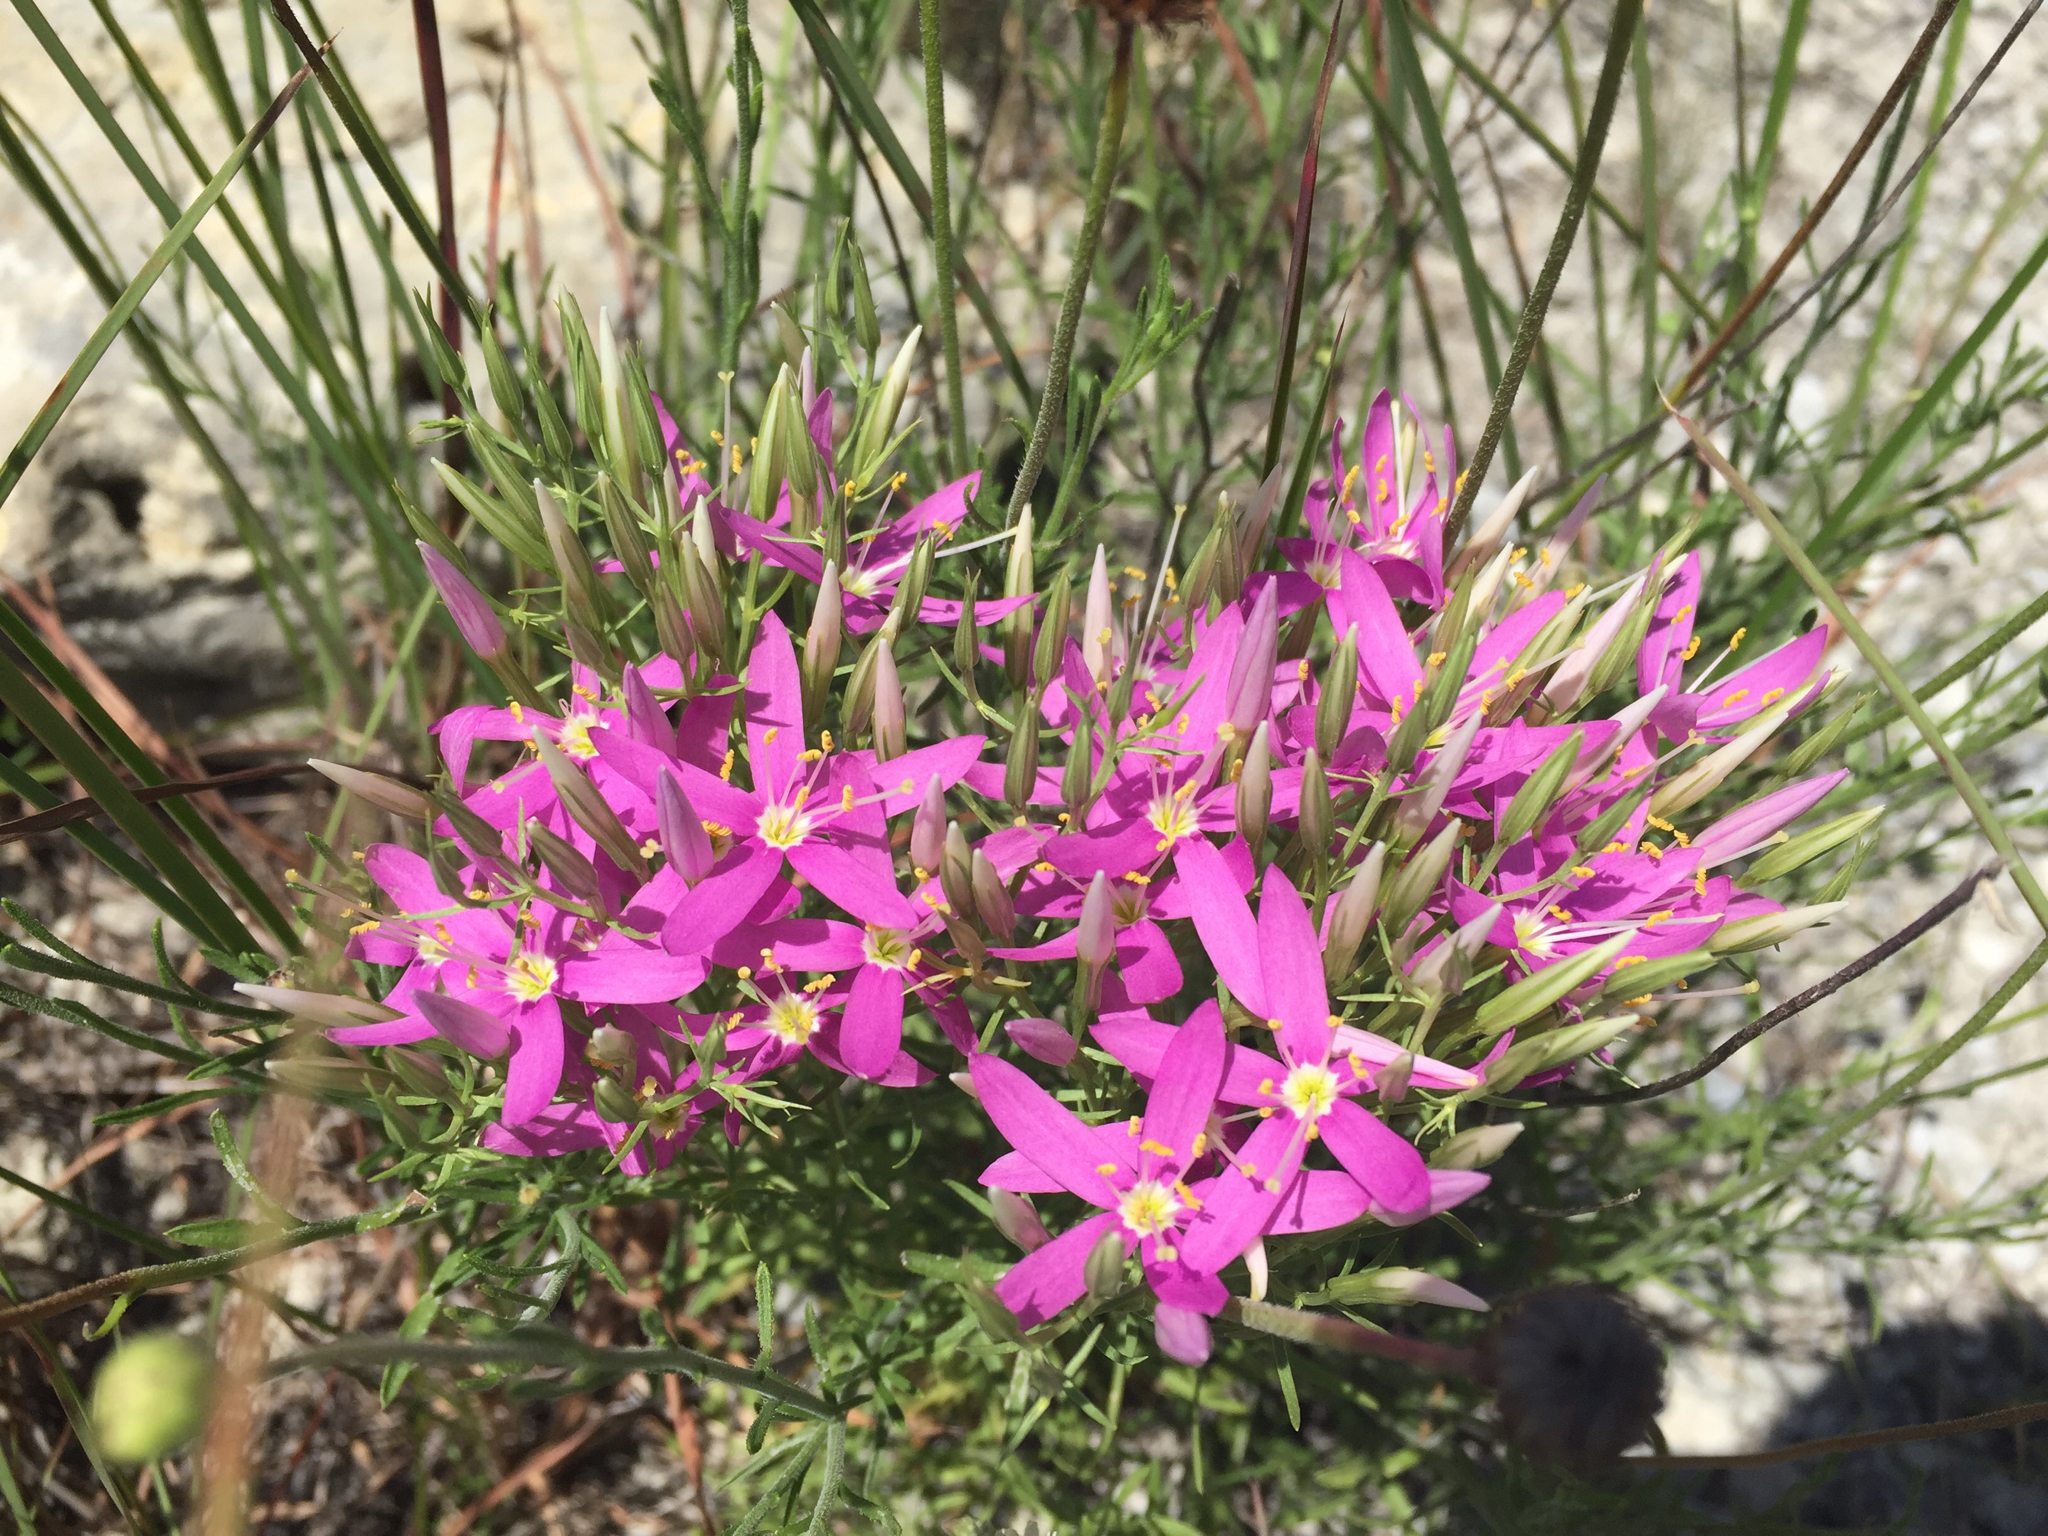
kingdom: Plantae
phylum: Tracheophyta
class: Magnoliopsida
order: Gentianales
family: Gentianaceae
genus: Zeltnera
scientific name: Zeltnera beyrichii
